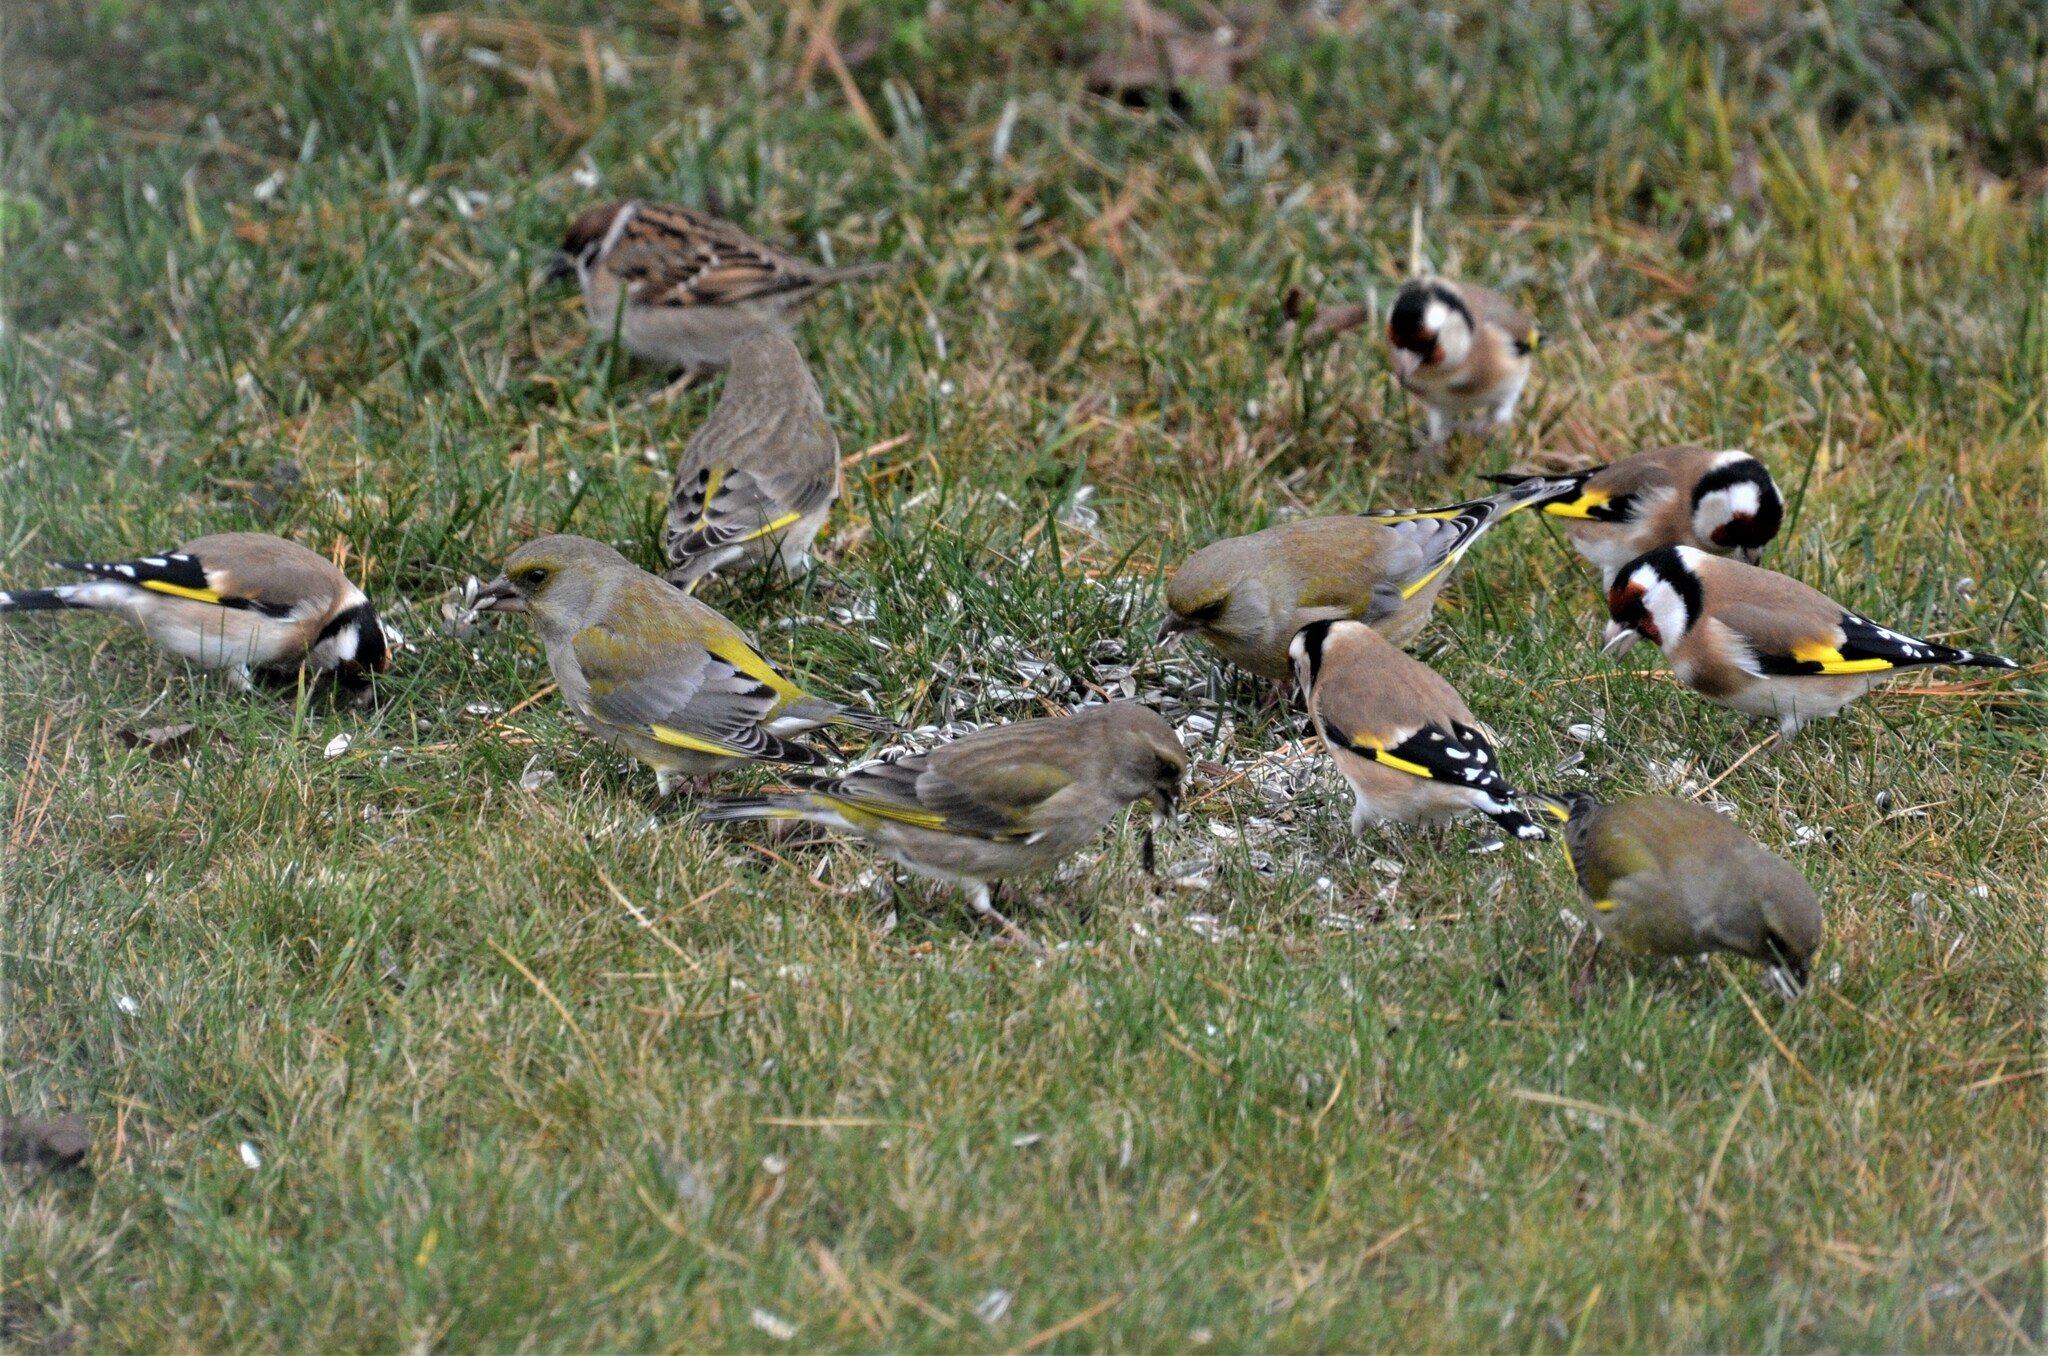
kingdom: Animalia
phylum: Chordata
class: Aves
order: Passeriformes
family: Fringillidae
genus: Carduelis
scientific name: Carduelis carduelis
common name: European goldfinch
